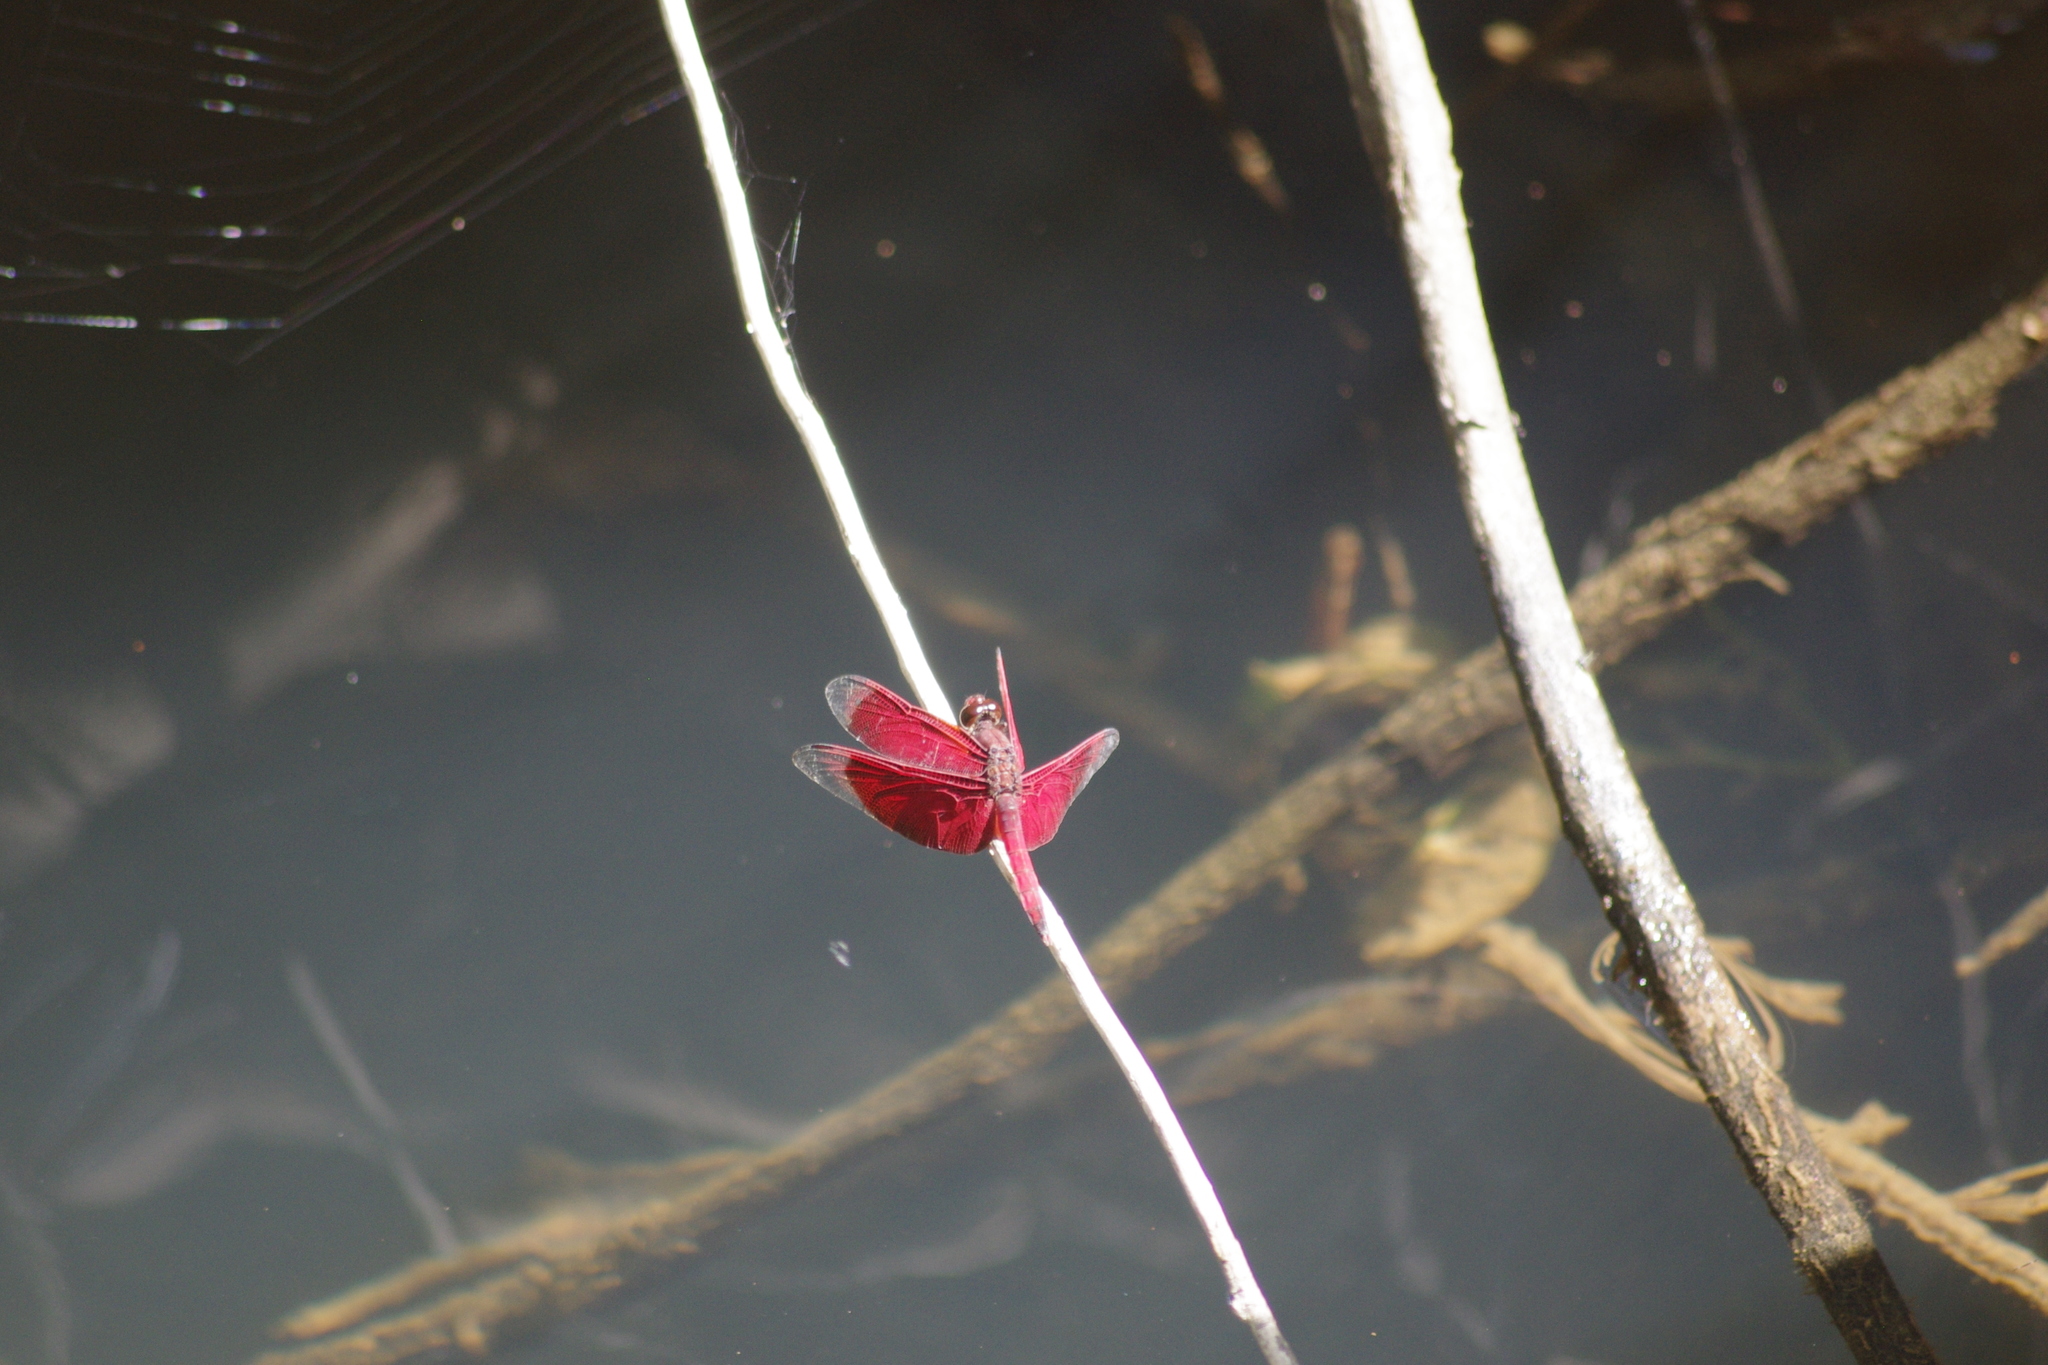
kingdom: Animalia
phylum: Arthropoda
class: Insecta
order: Odonata
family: Libellulidae
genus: Neurothemis
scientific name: Neurothemis papuensis
